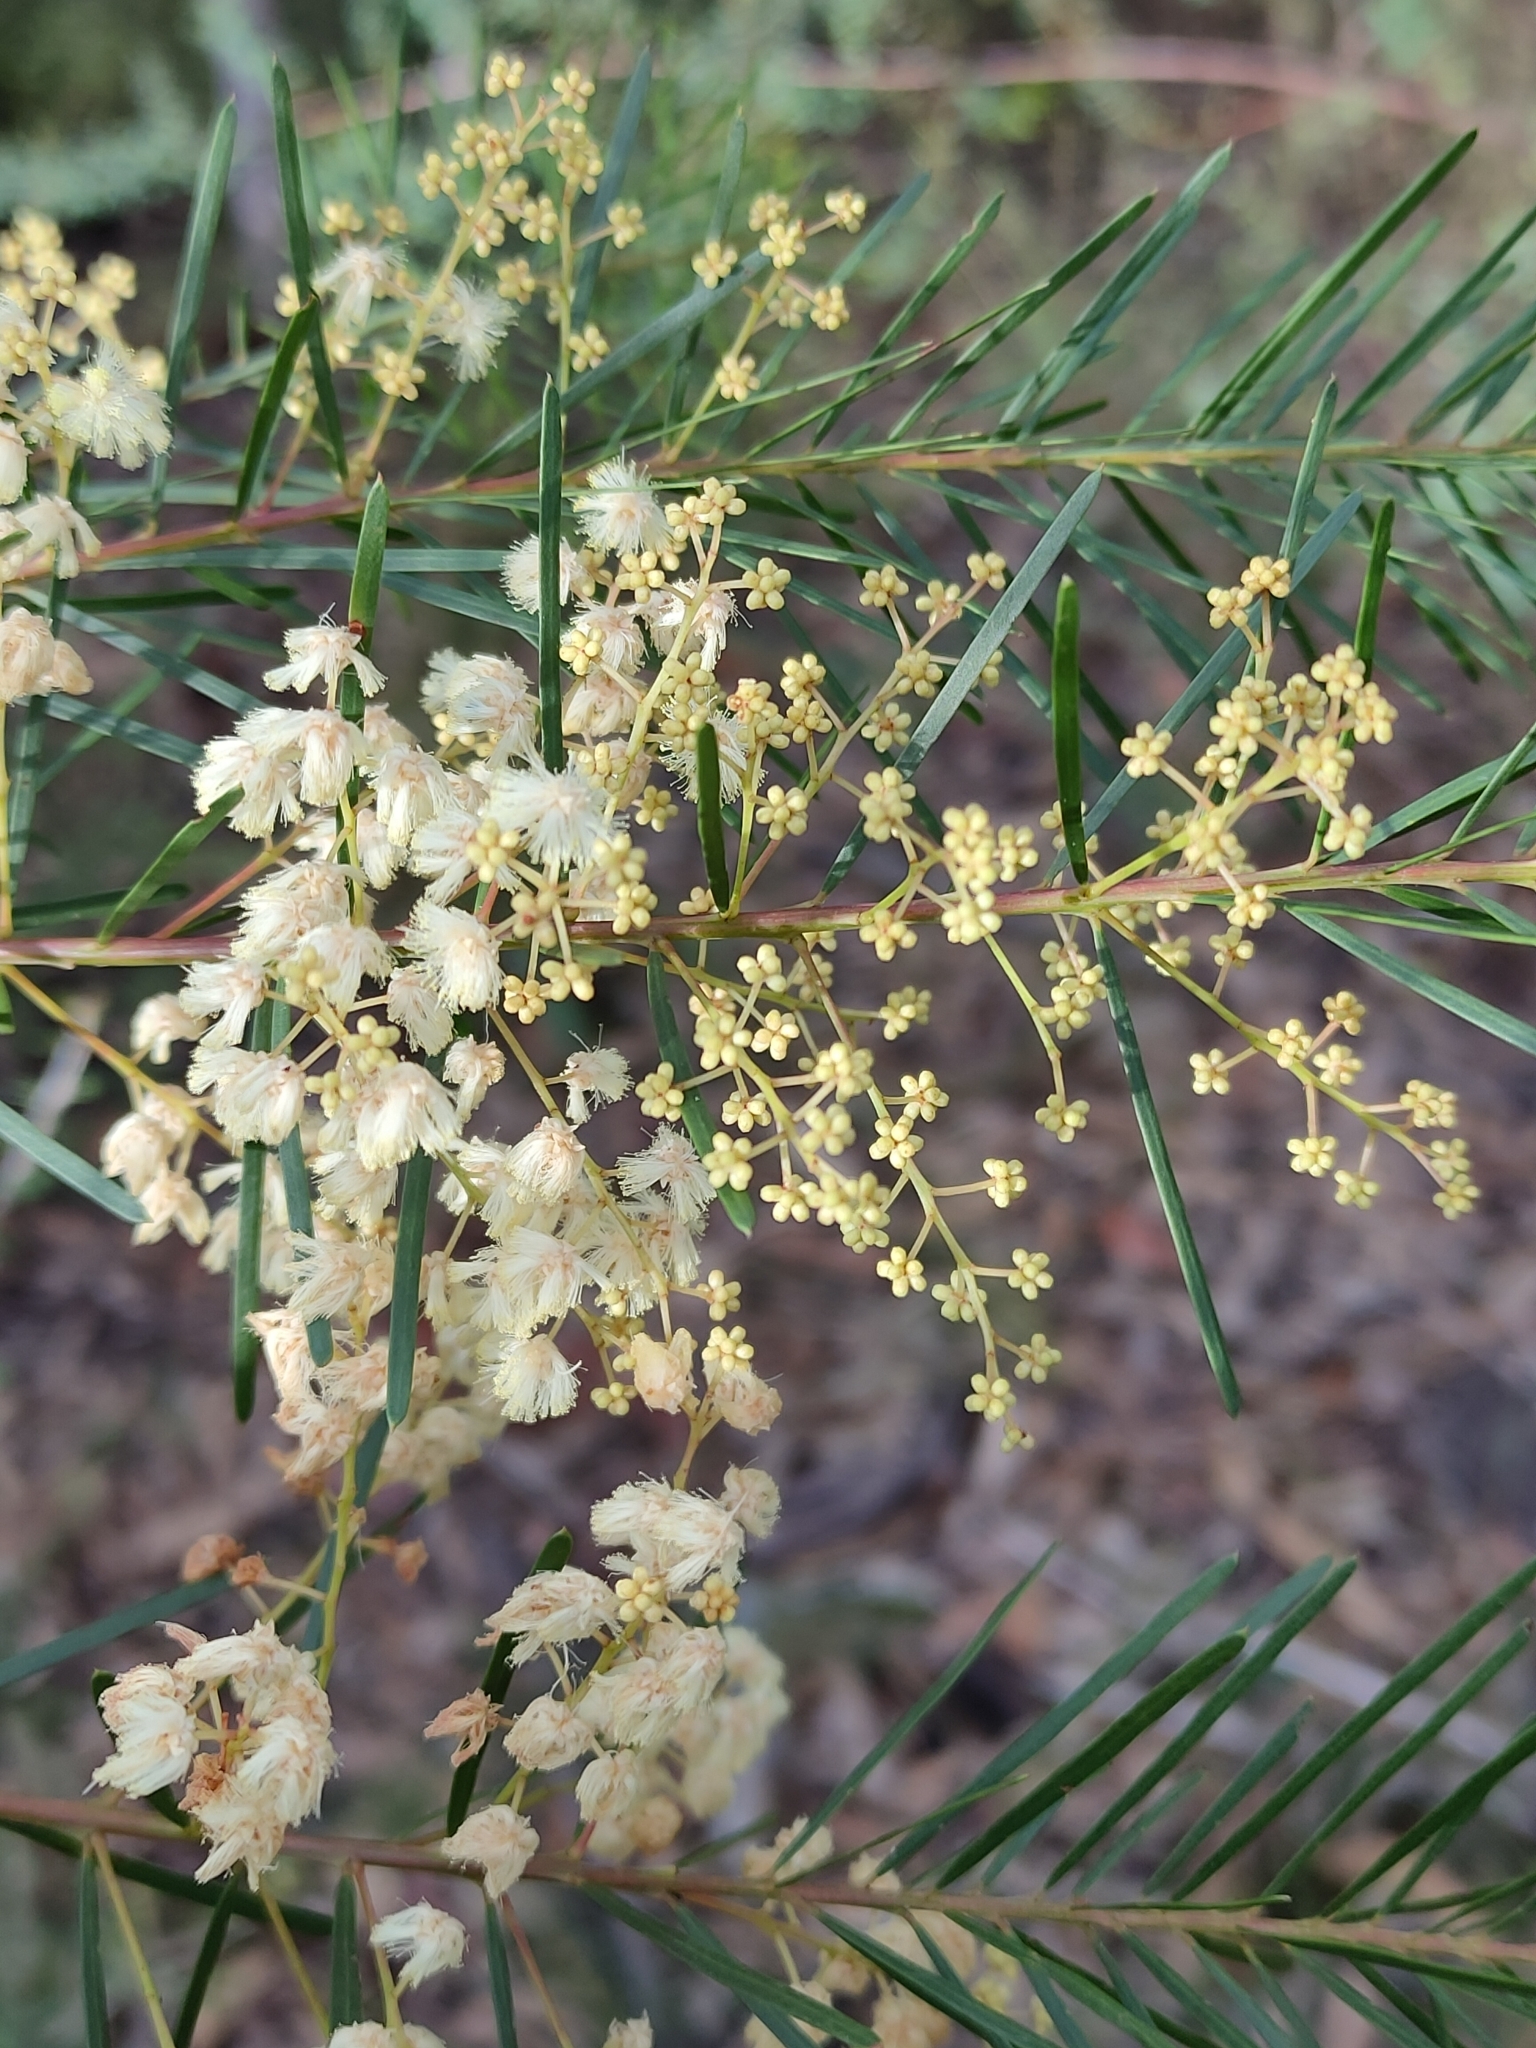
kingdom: Plantae
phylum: Tracheophyta
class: Magnoliopsida
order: Fabales
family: Fabaceae
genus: Acacia
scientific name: Acacia linifolia
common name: White wattle
